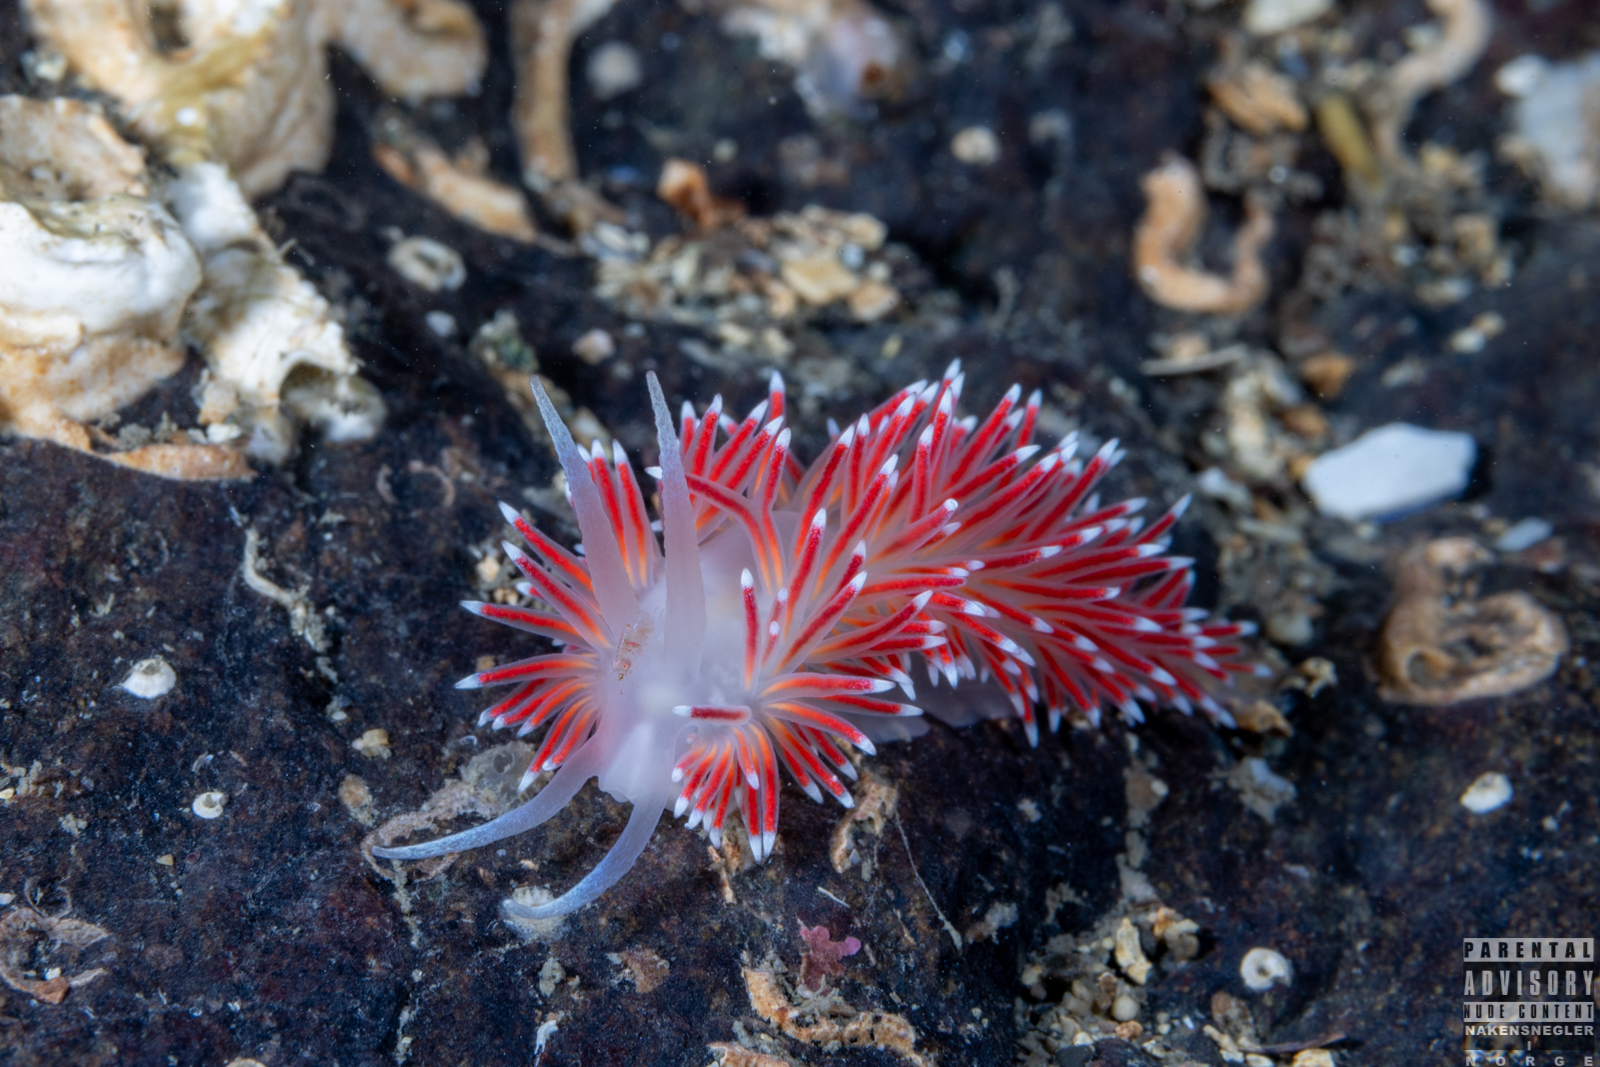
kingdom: Animalia
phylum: Mollusca
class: Gastropoda
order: Nudibranchia
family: Flabellinidae
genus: Carronella
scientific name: Carronella pellucida
